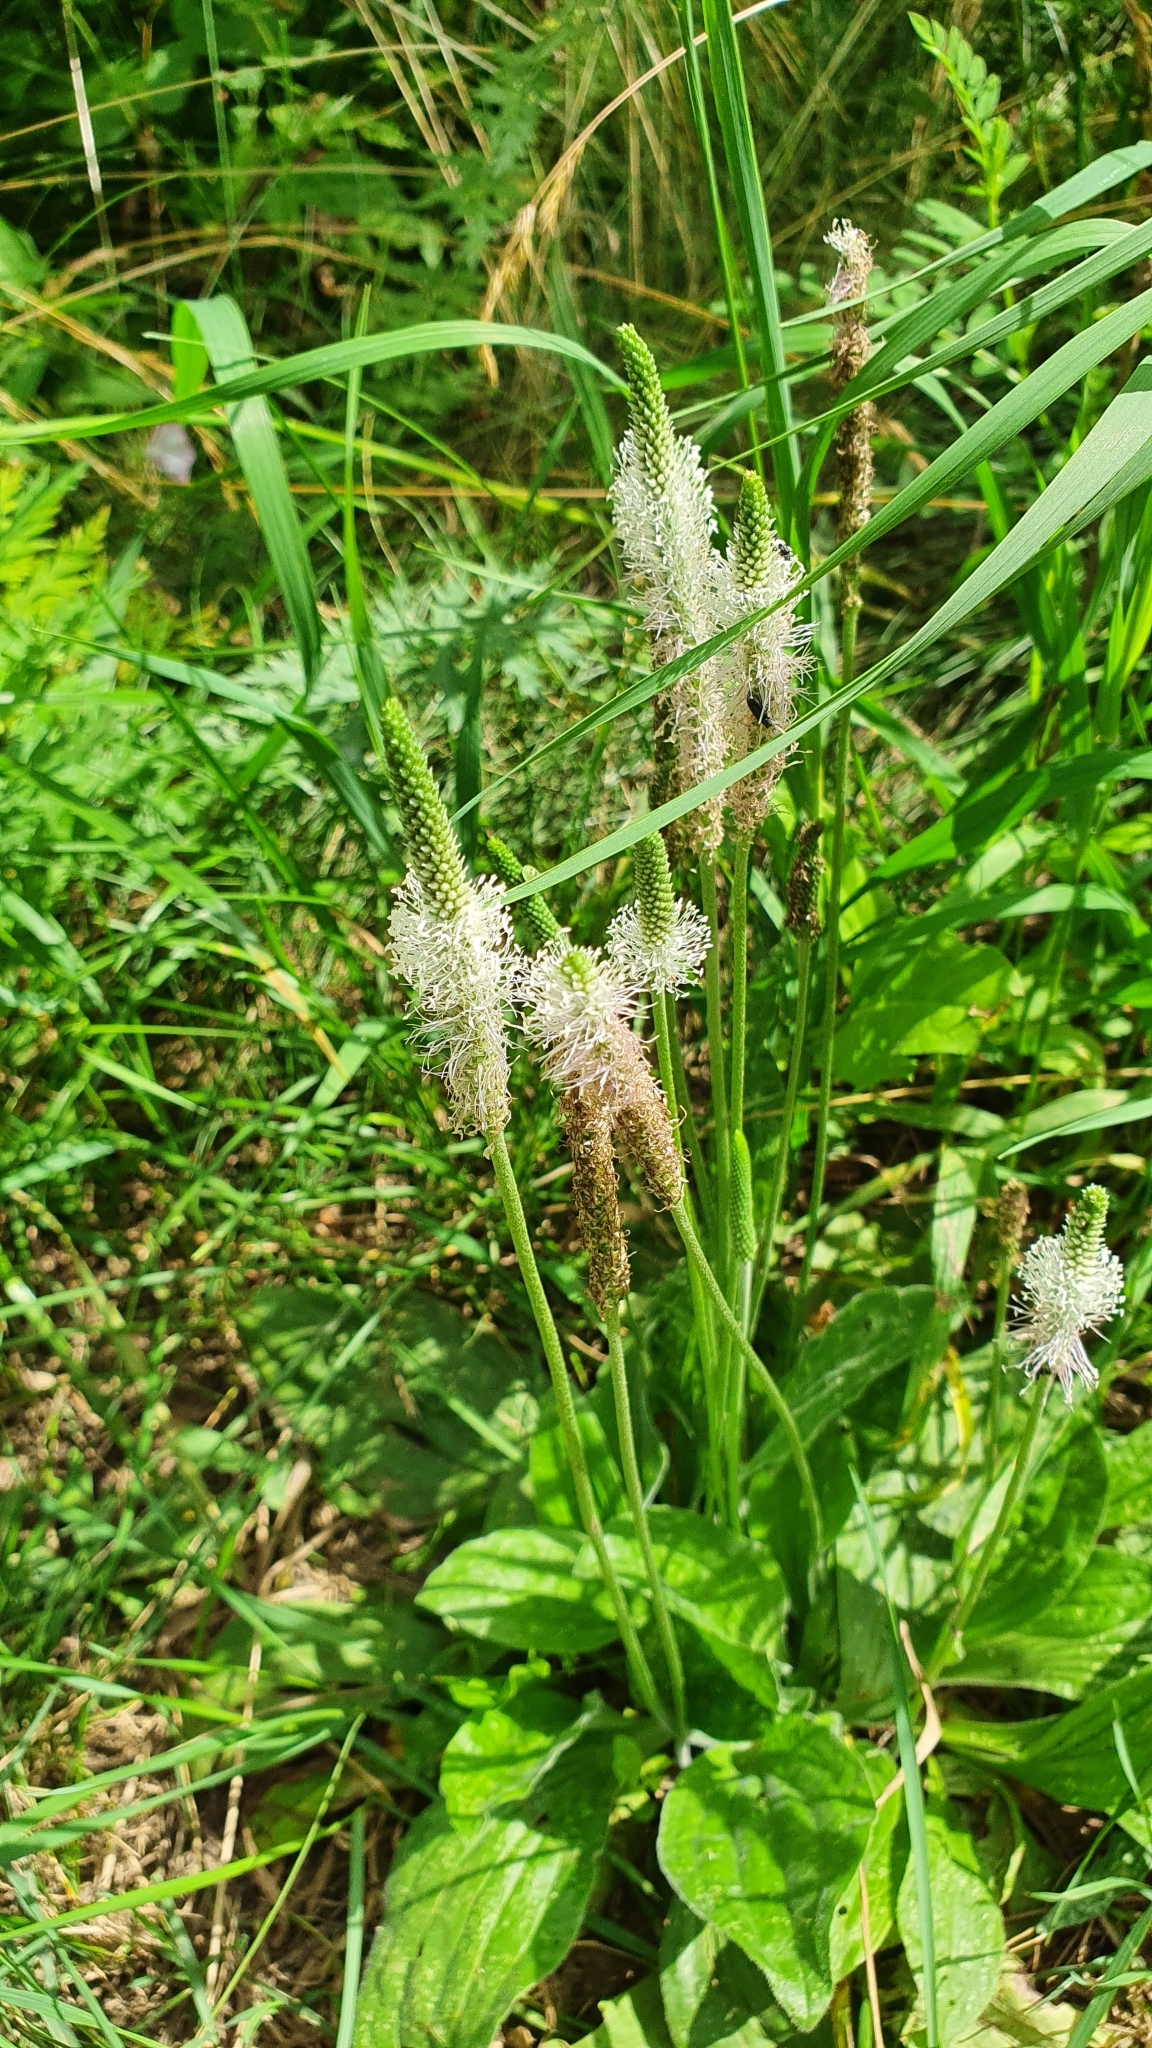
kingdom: Plantae
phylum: Tracheophyta
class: Magnoliopsida
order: Lamiales
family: Plantaginaceae
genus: Plantago
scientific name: Plantago media
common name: Hoary plantain
